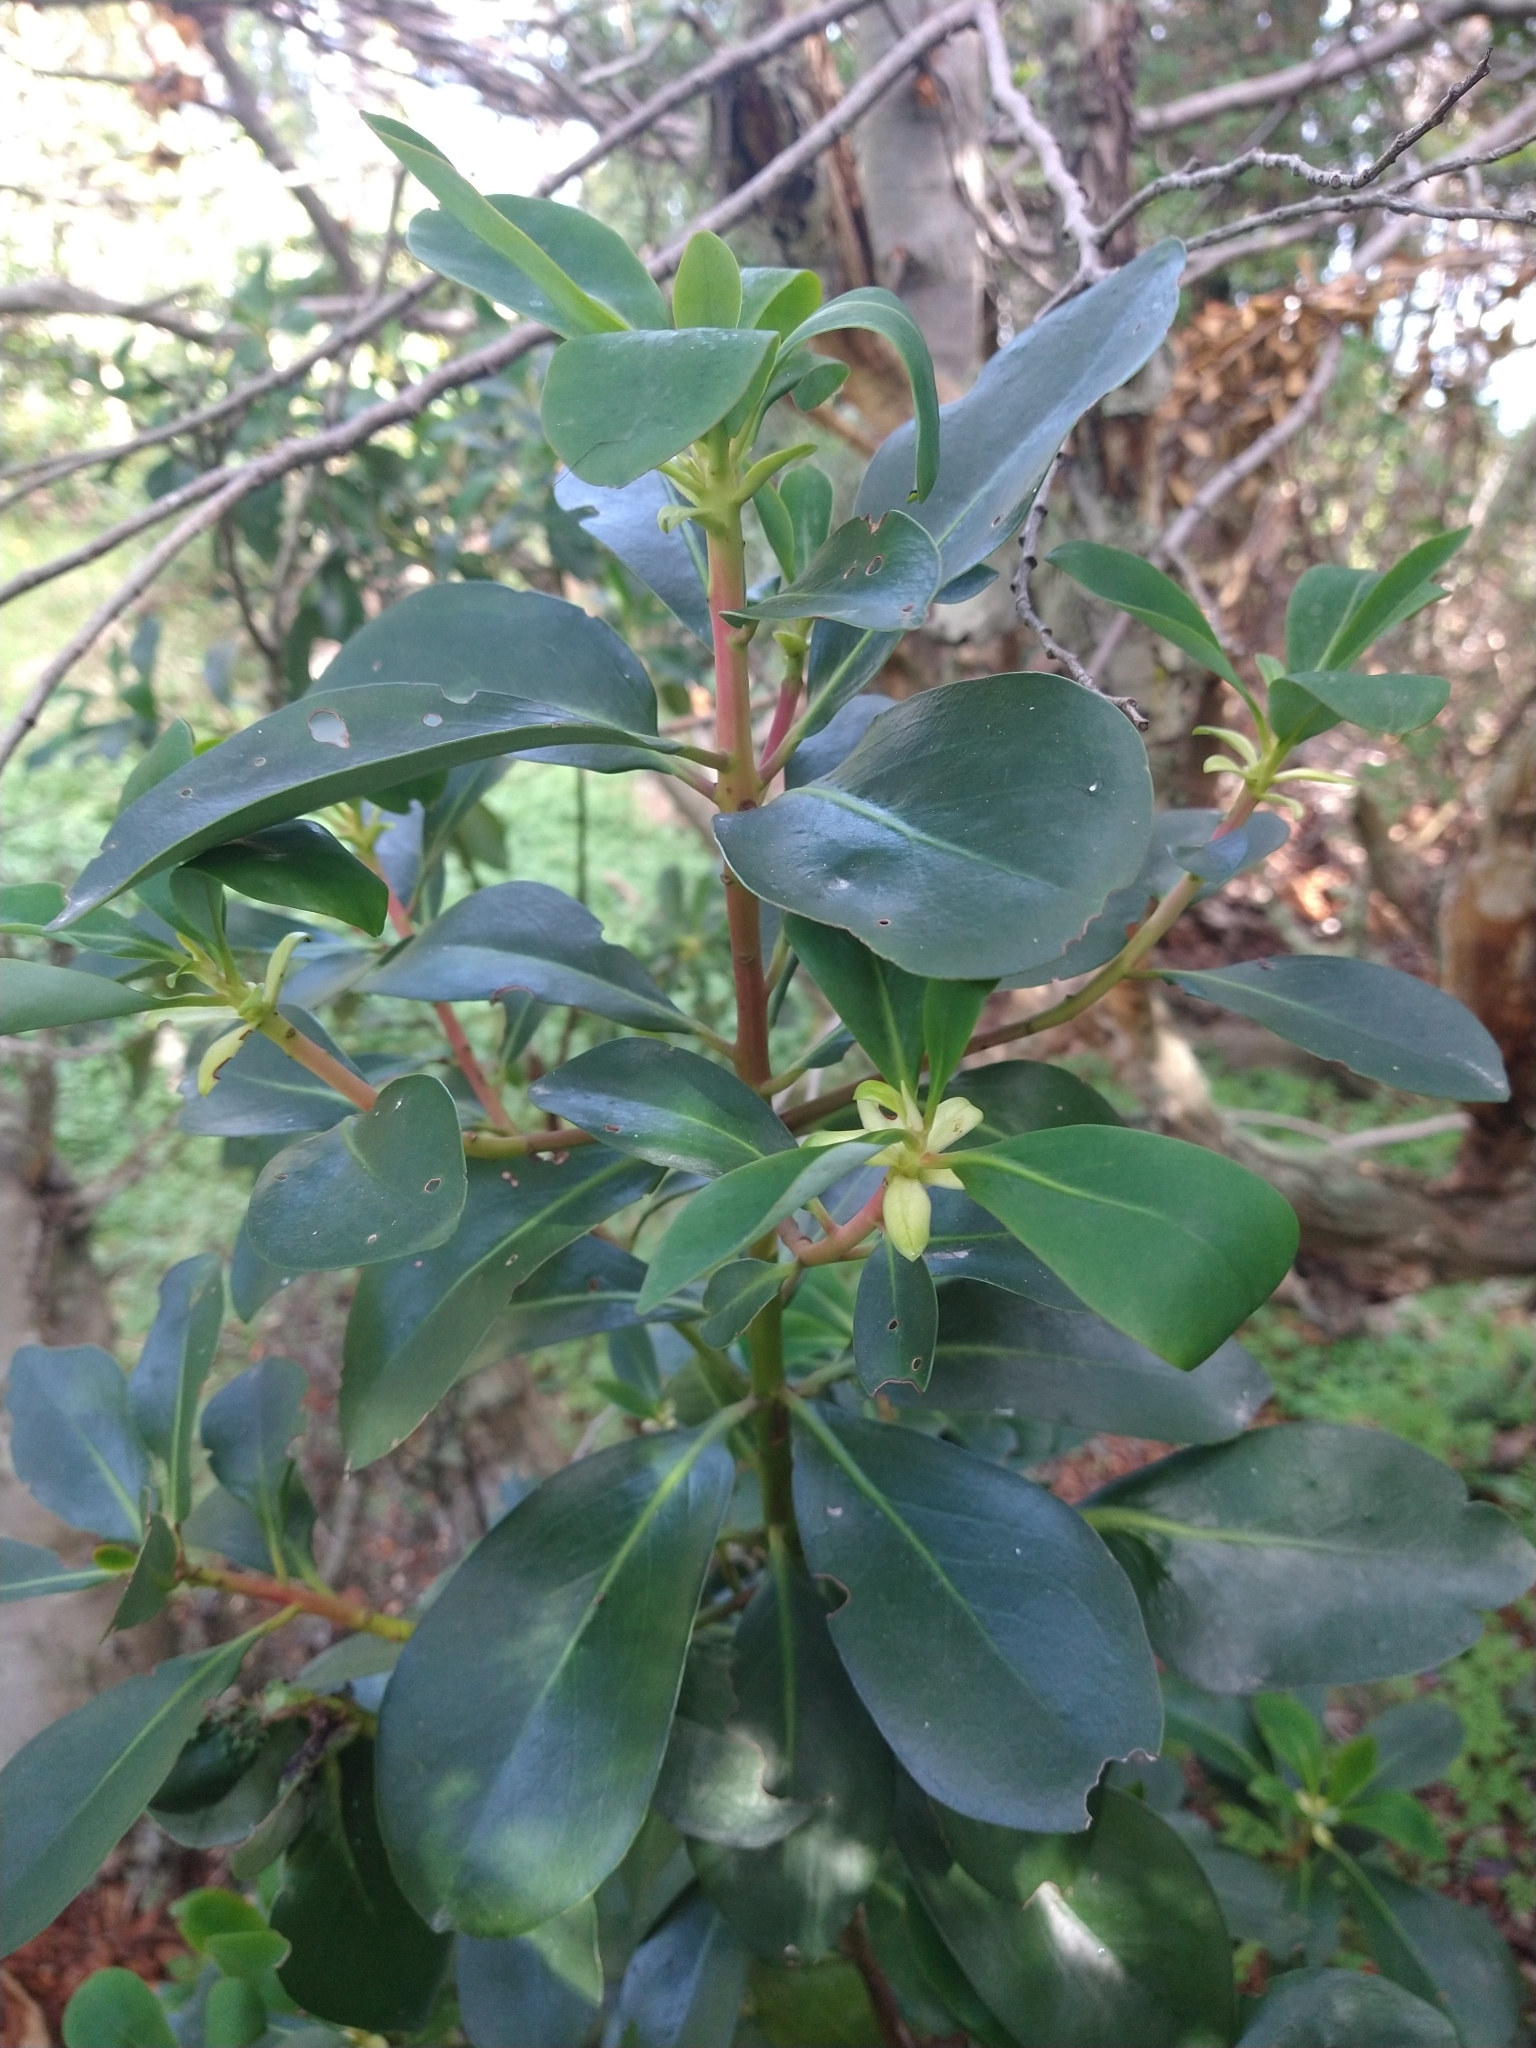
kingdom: Plantae
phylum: Tracheophyta
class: Magnoliopsida
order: Canellales
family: Winteraceae
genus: Drimys
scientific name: Drimys winteri
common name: Winter's-bark
